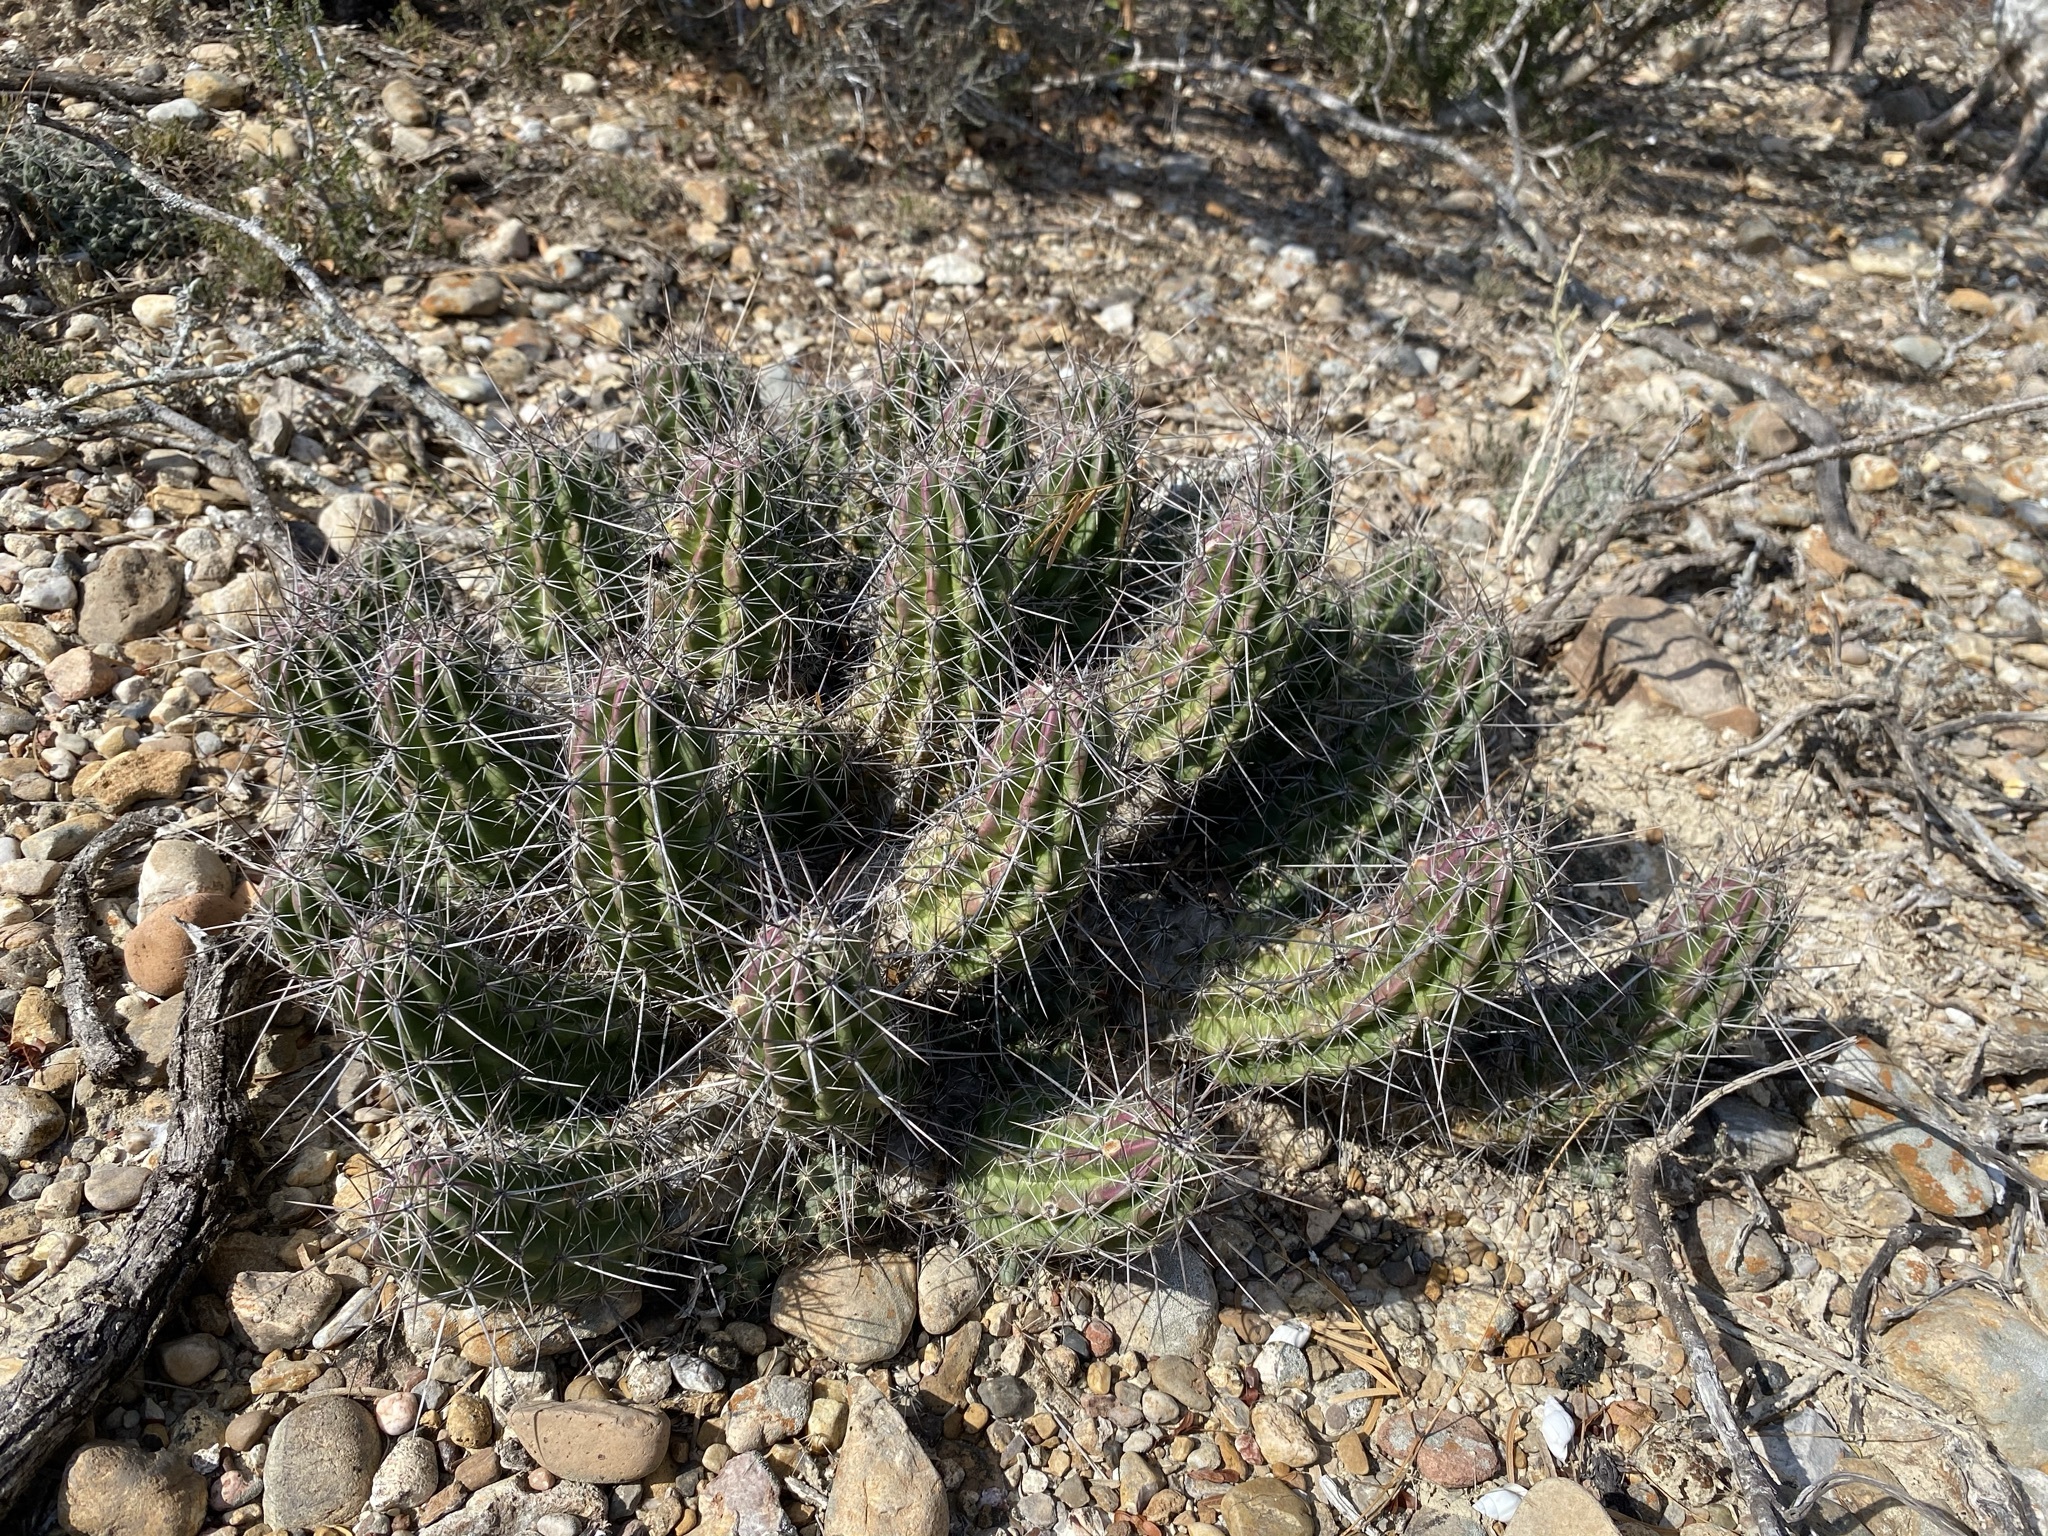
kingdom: Plantae
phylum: Tracheophyta
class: Magnoliopsida
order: Caryophyllales
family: Cactaceae
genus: Echinocereus
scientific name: Echinocereus enneacanthus
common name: Pitaya
